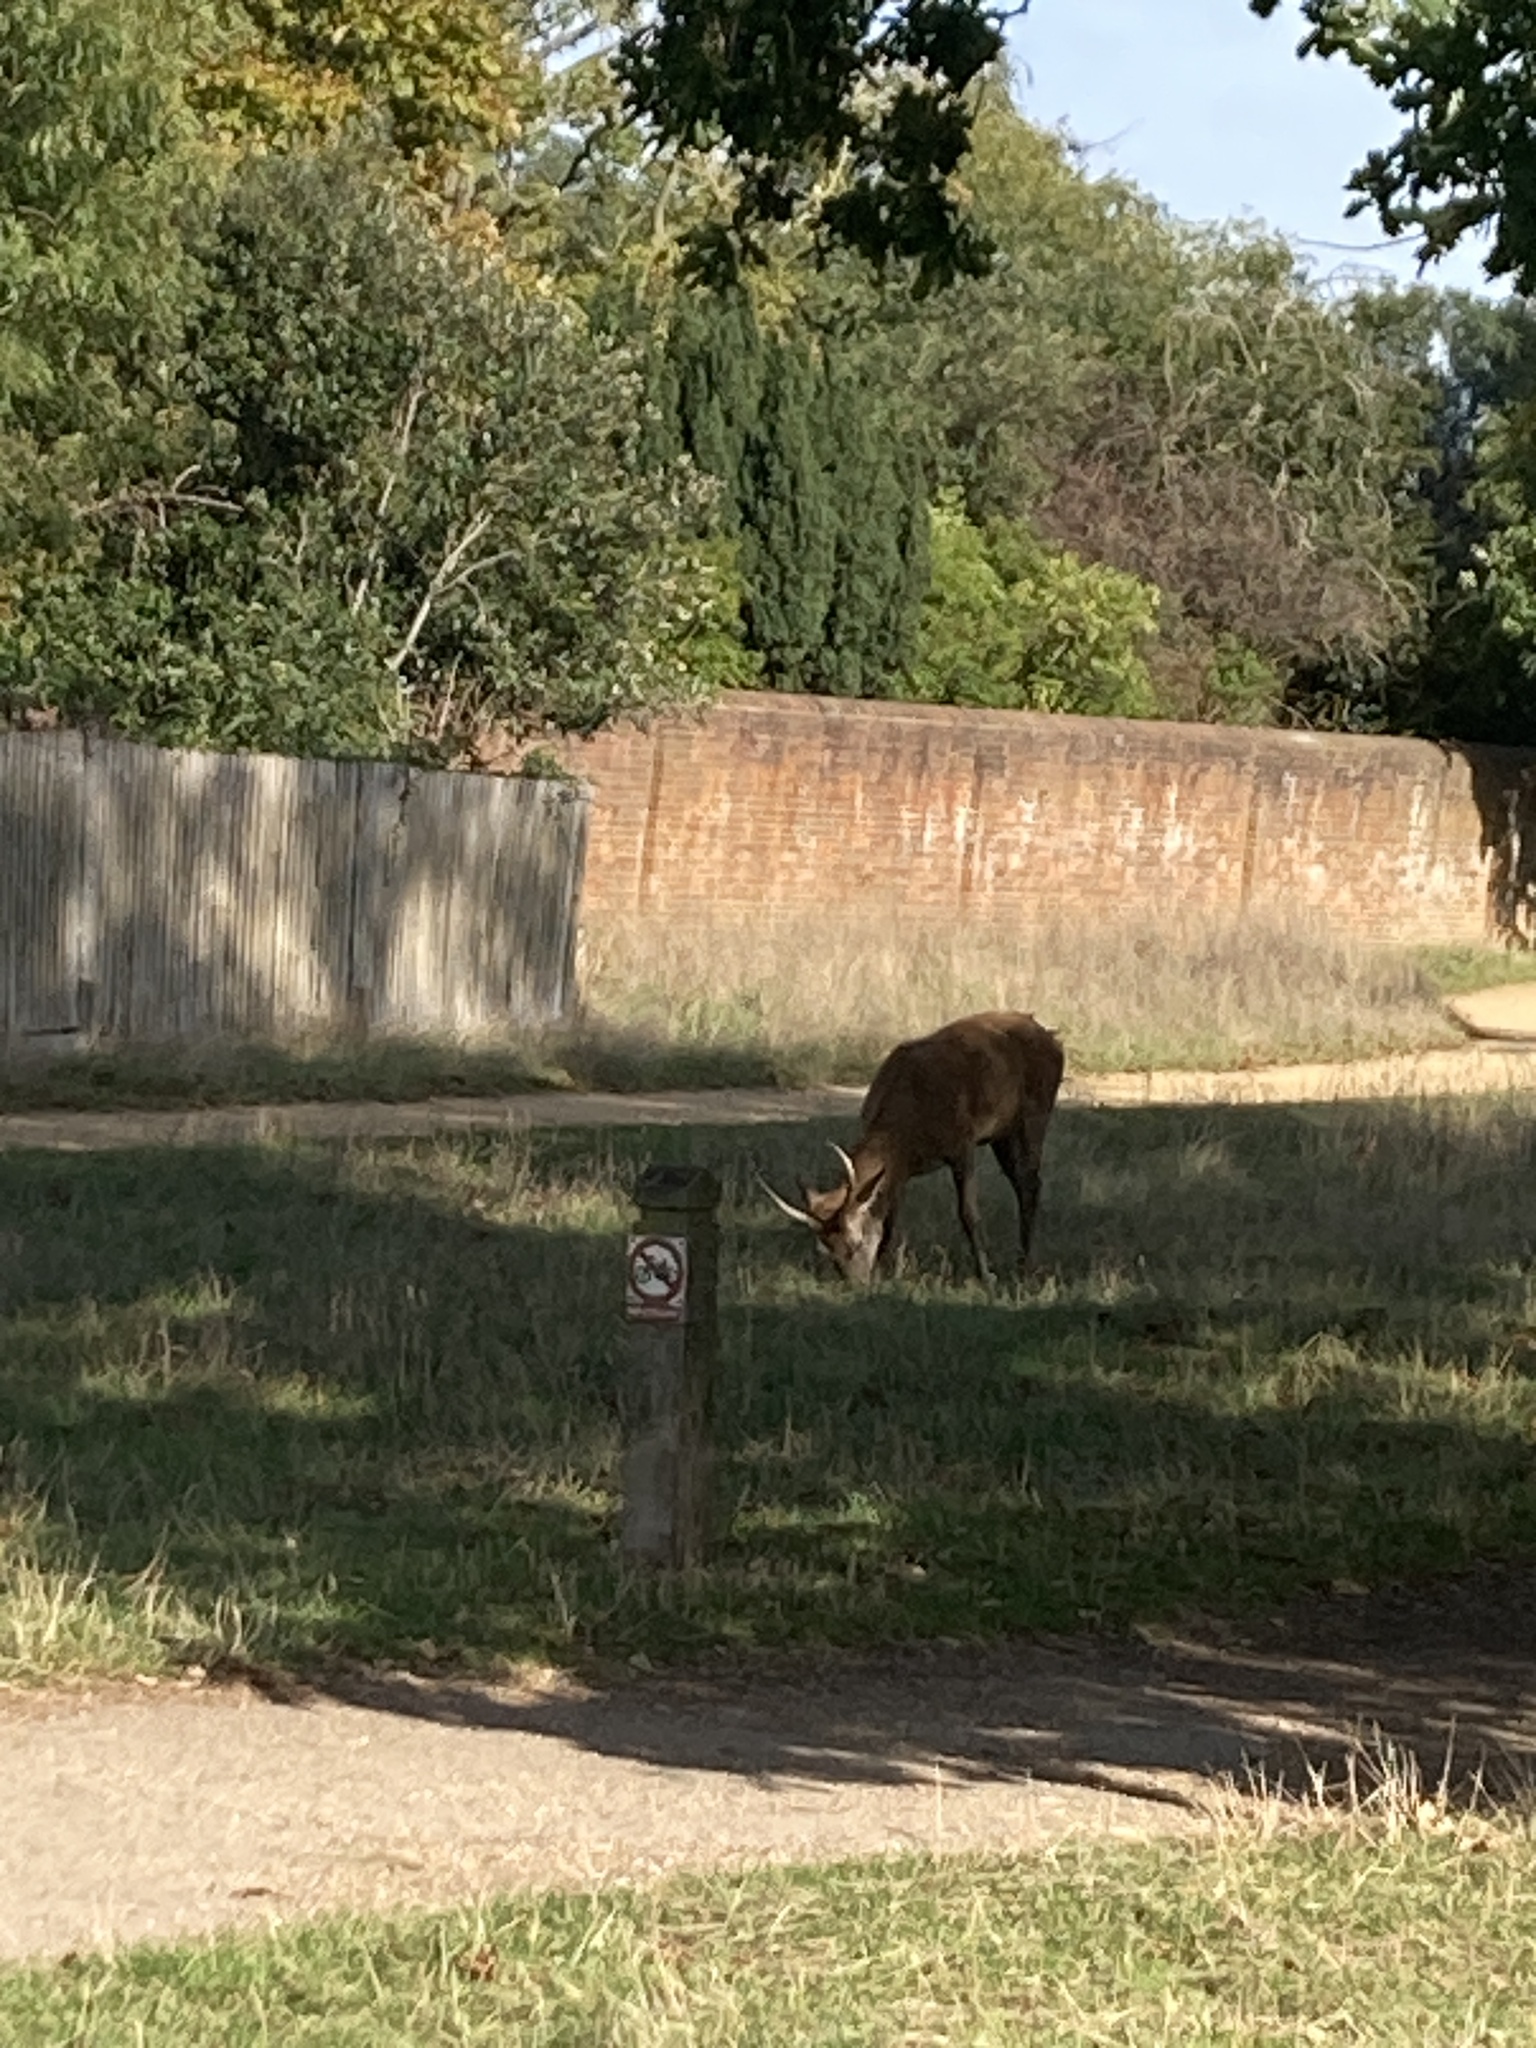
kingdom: Animalia
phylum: Chordata
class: Mammalia
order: Artiodactyla
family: Cervidae
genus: Cervus
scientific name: Cervus elaphus
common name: Red deer
